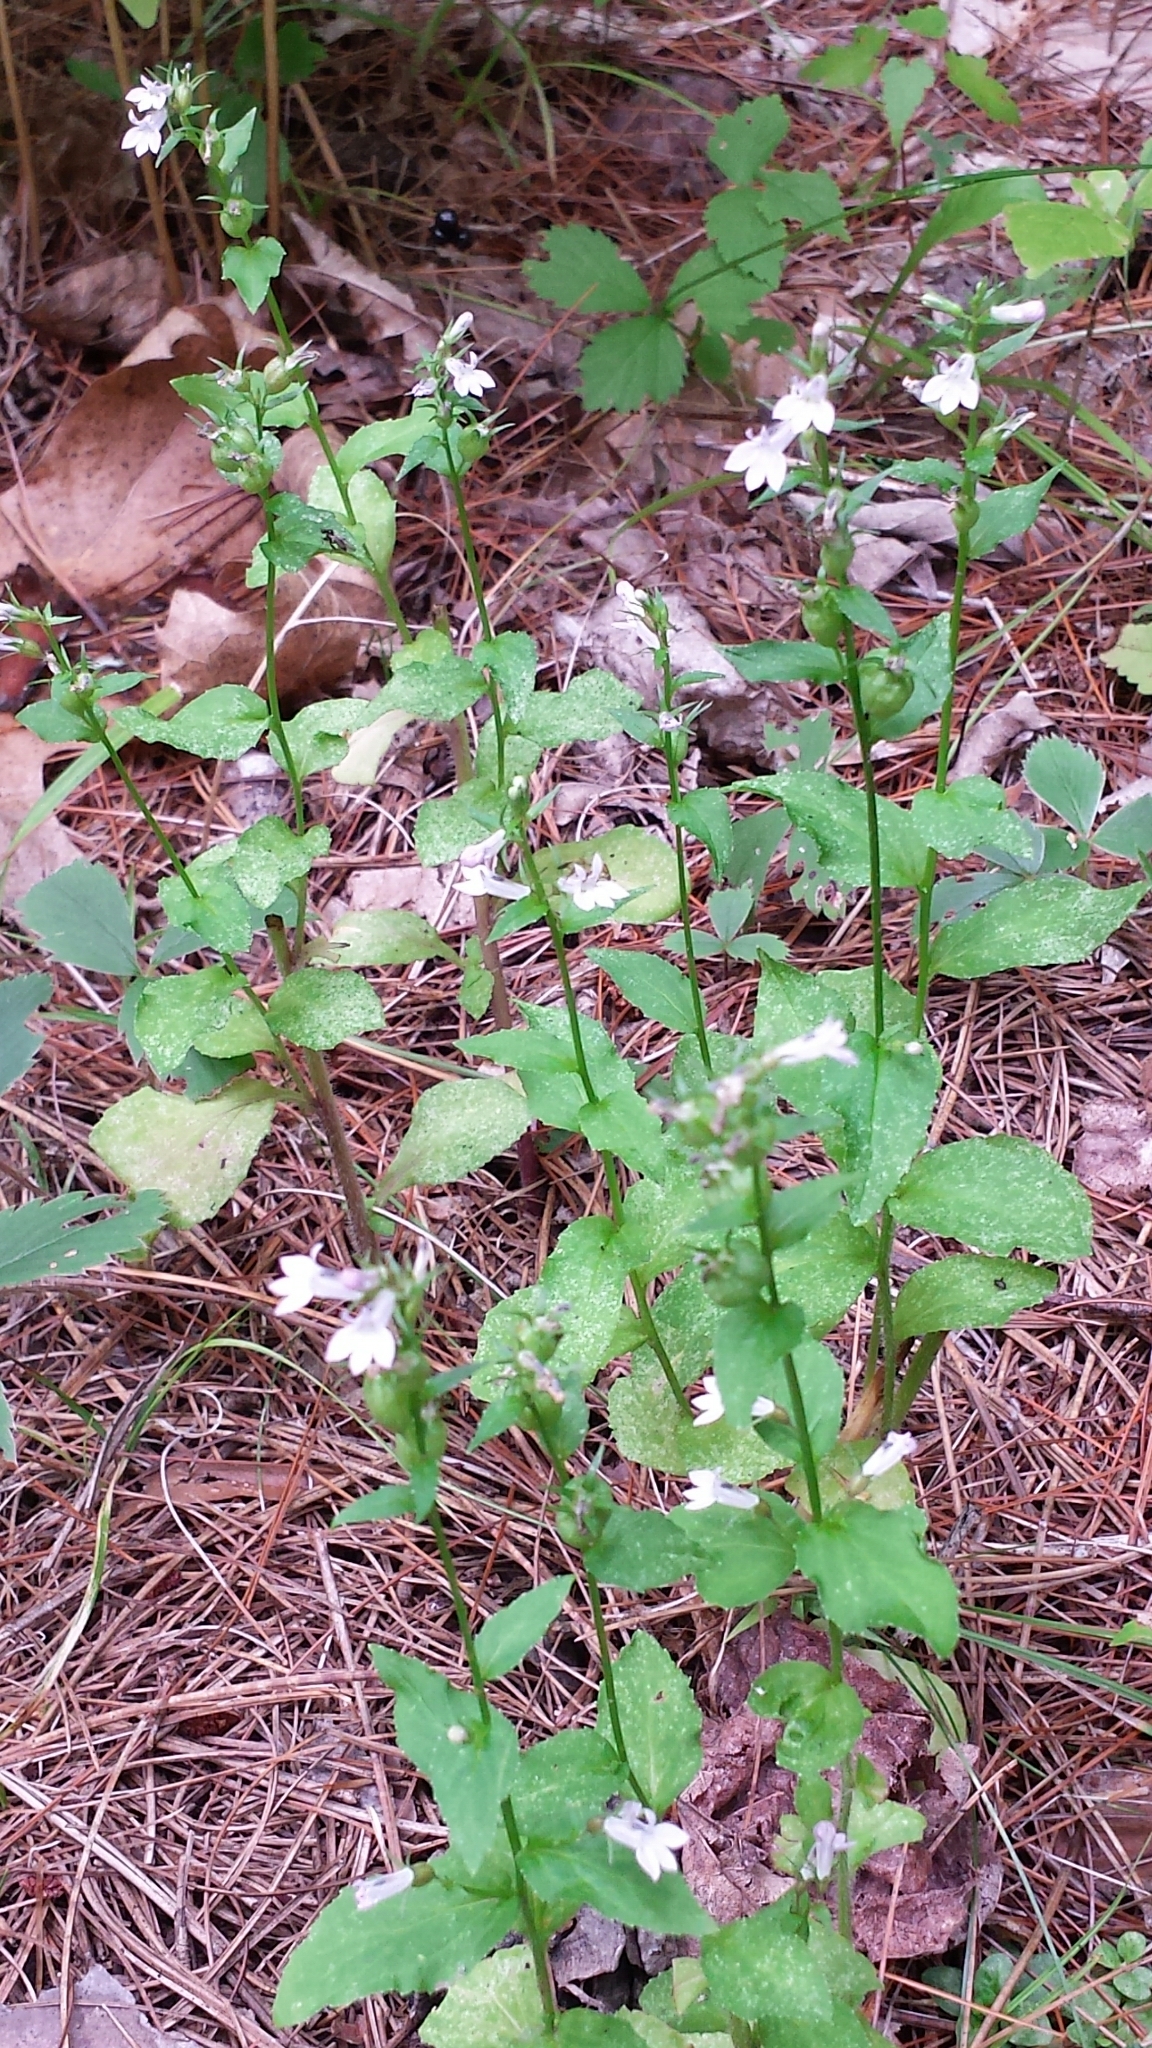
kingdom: Plantae
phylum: Tracheophyta
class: Magnoliopsida
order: Asterales
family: Campanulaceae
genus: Lobelia
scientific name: Lobelia inflata
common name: Indian tobacco
